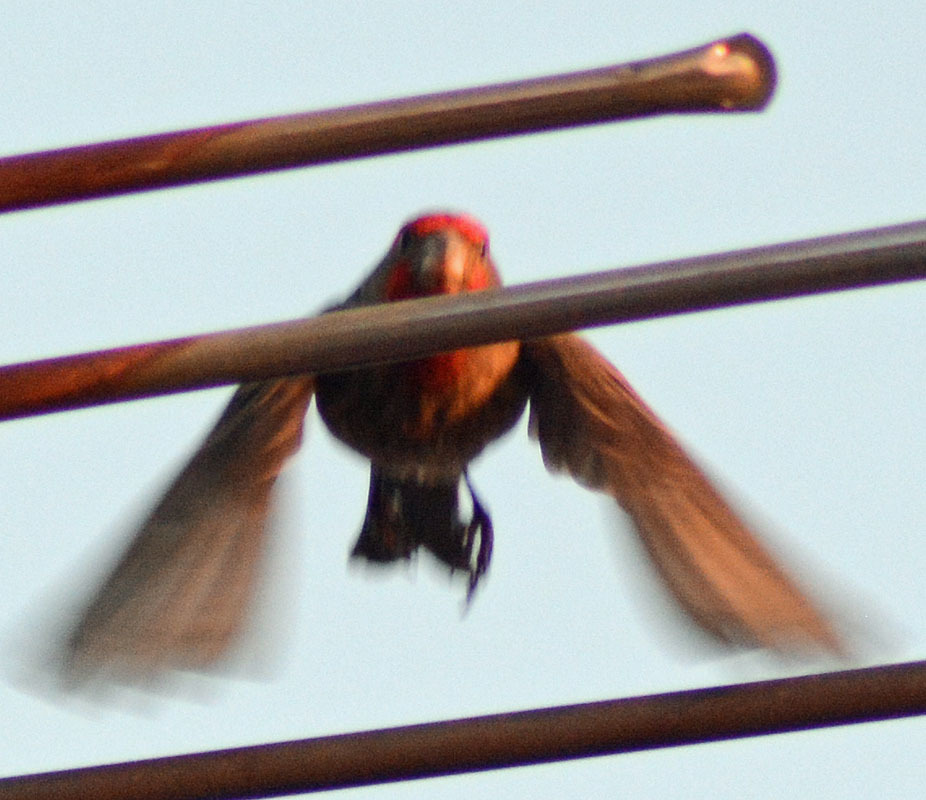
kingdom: Animalia
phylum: Chordata
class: Aves
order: Passeriformes
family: Fringillidae
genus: Haemorhous
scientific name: Haemorhous mexicanus
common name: House finch
